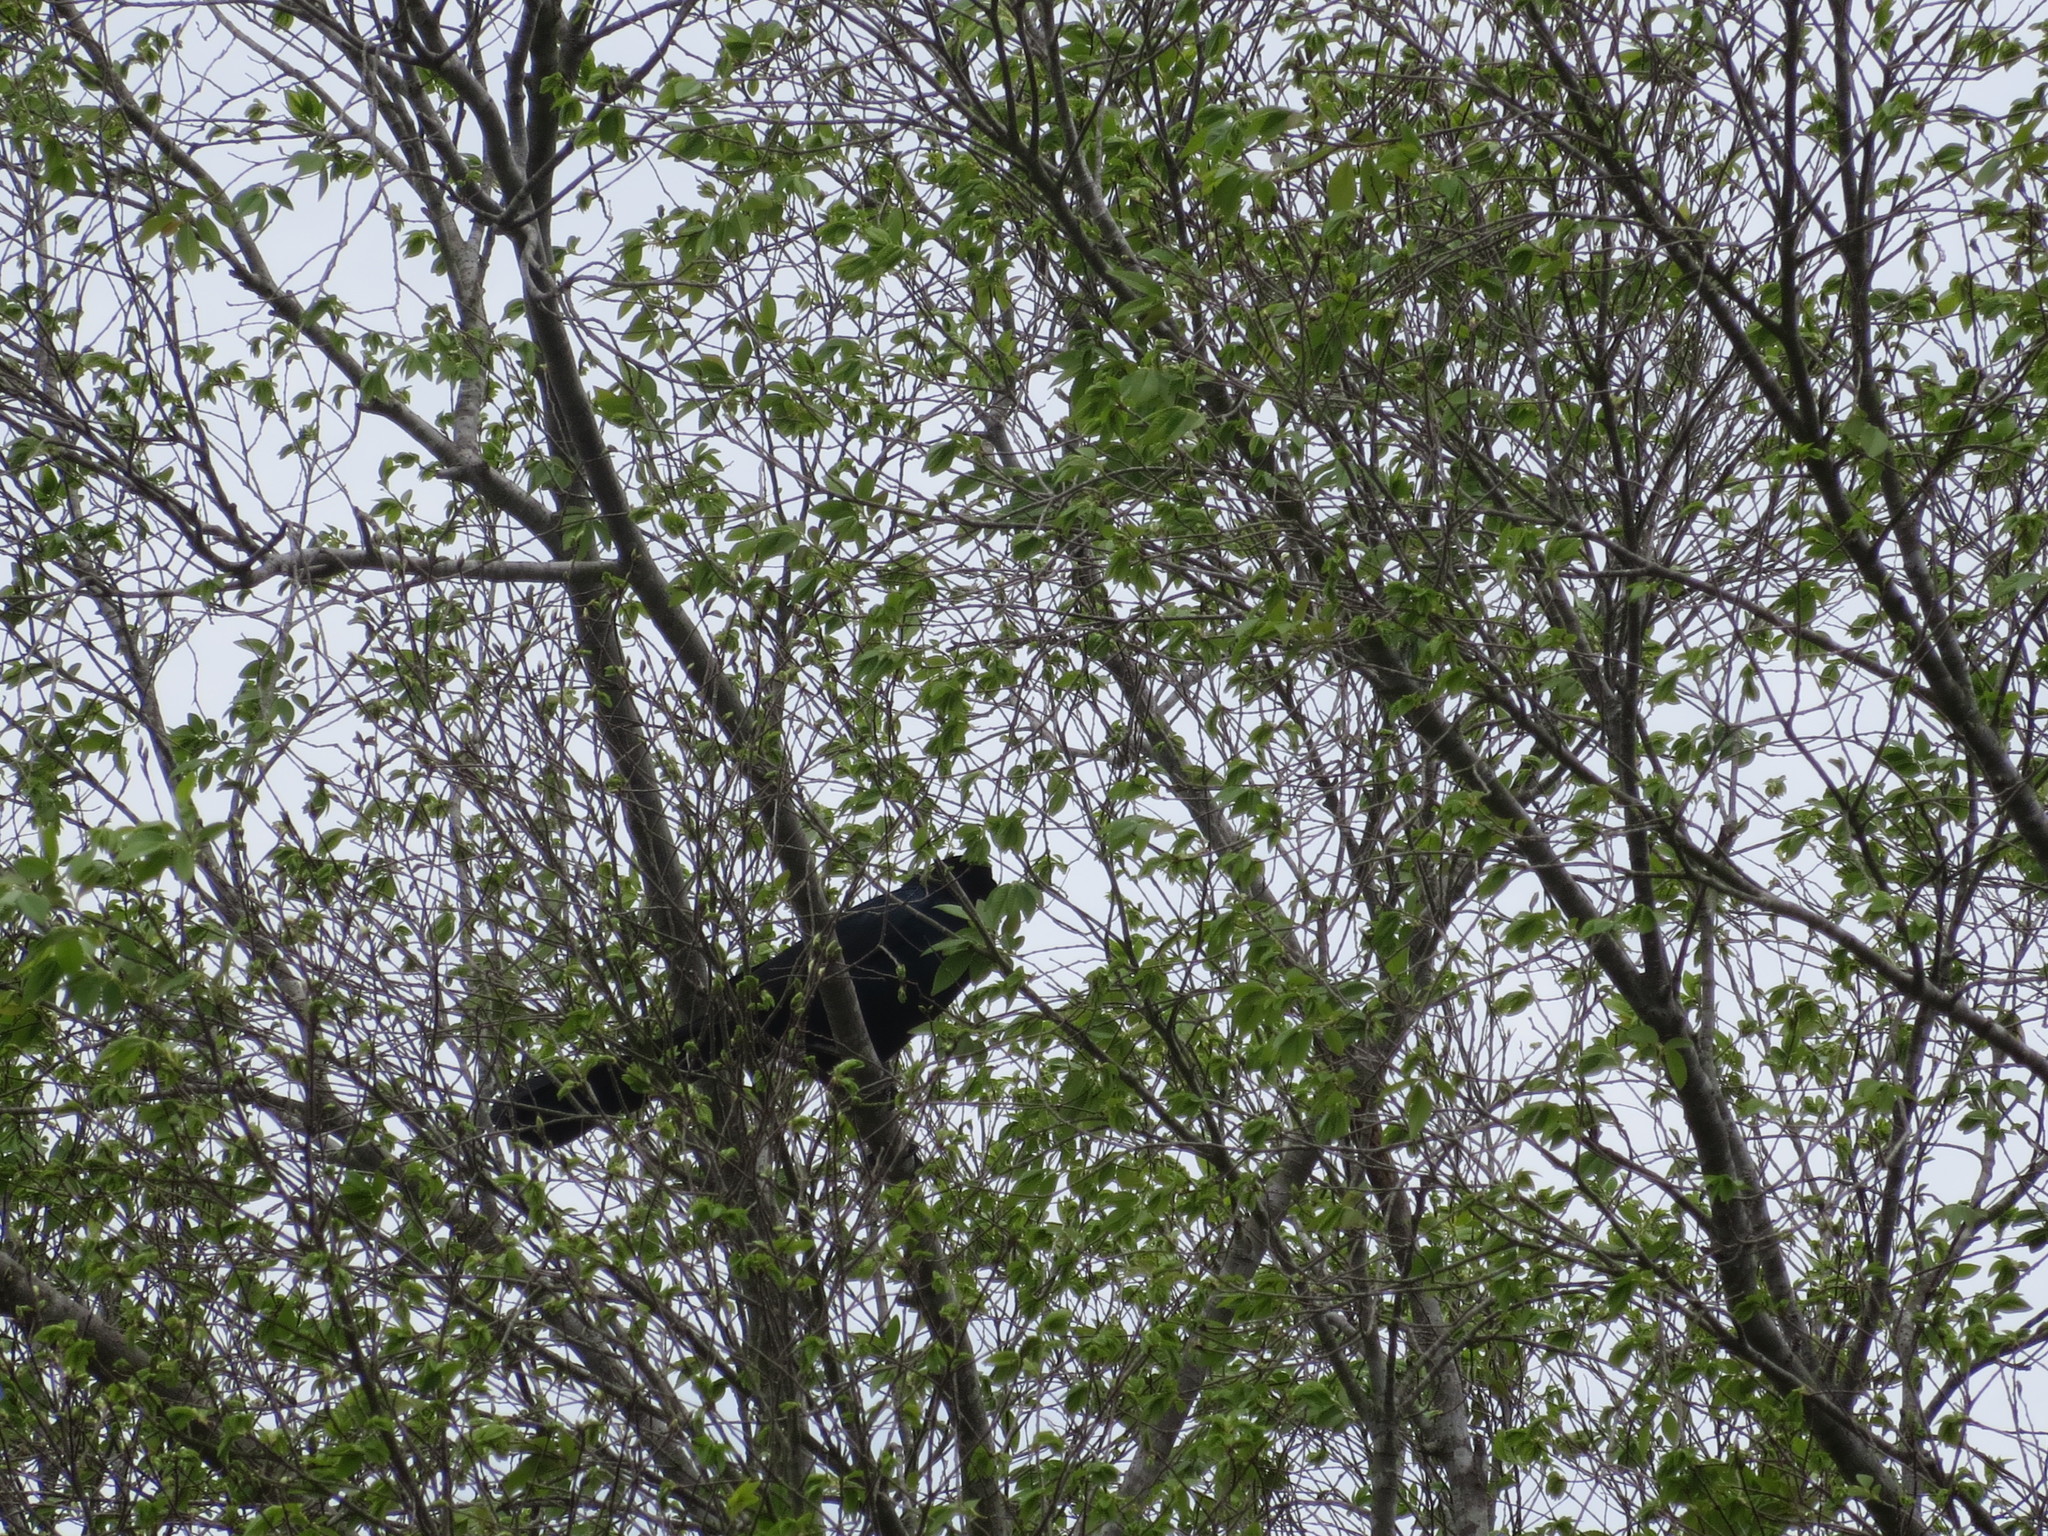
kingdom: Animalia
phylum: Chordata
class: Aves
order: Passeriformes
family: Icteridae
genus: Quiscalus
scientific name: Quiscalus major
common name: Boat-tailed grackle
